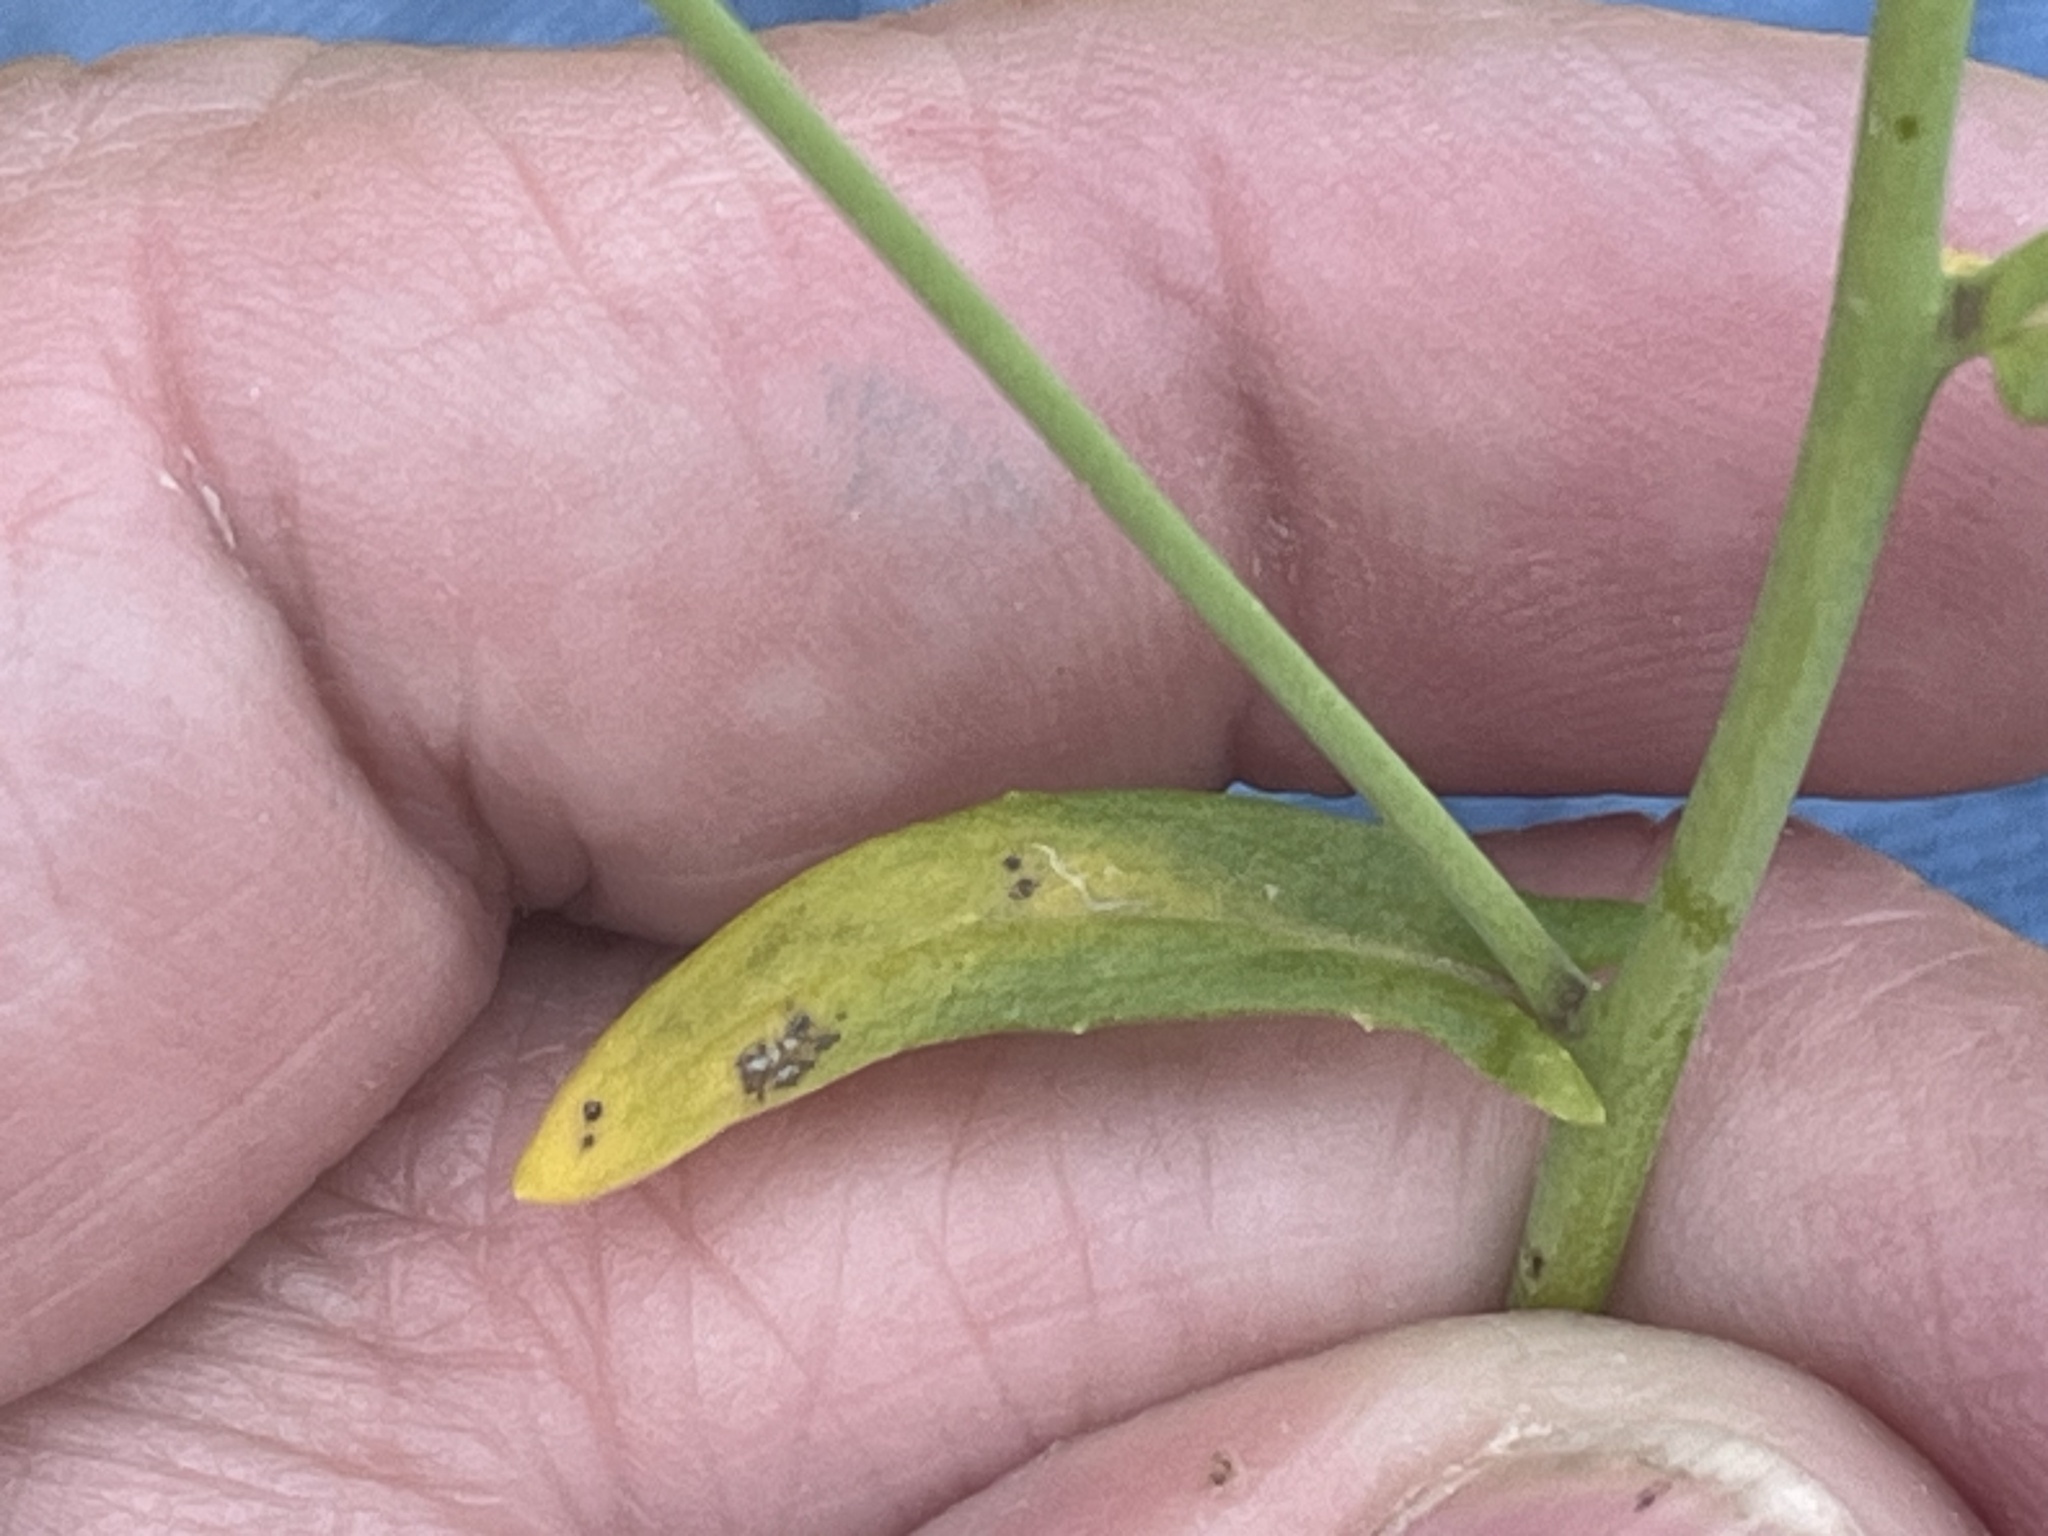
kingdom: Plantae
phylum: Tracheophyta
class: Magnoliopsida
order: Brassicales
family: Brassicaceae
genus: Mummenhoffia
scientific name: Mummenhoffia alliacea
